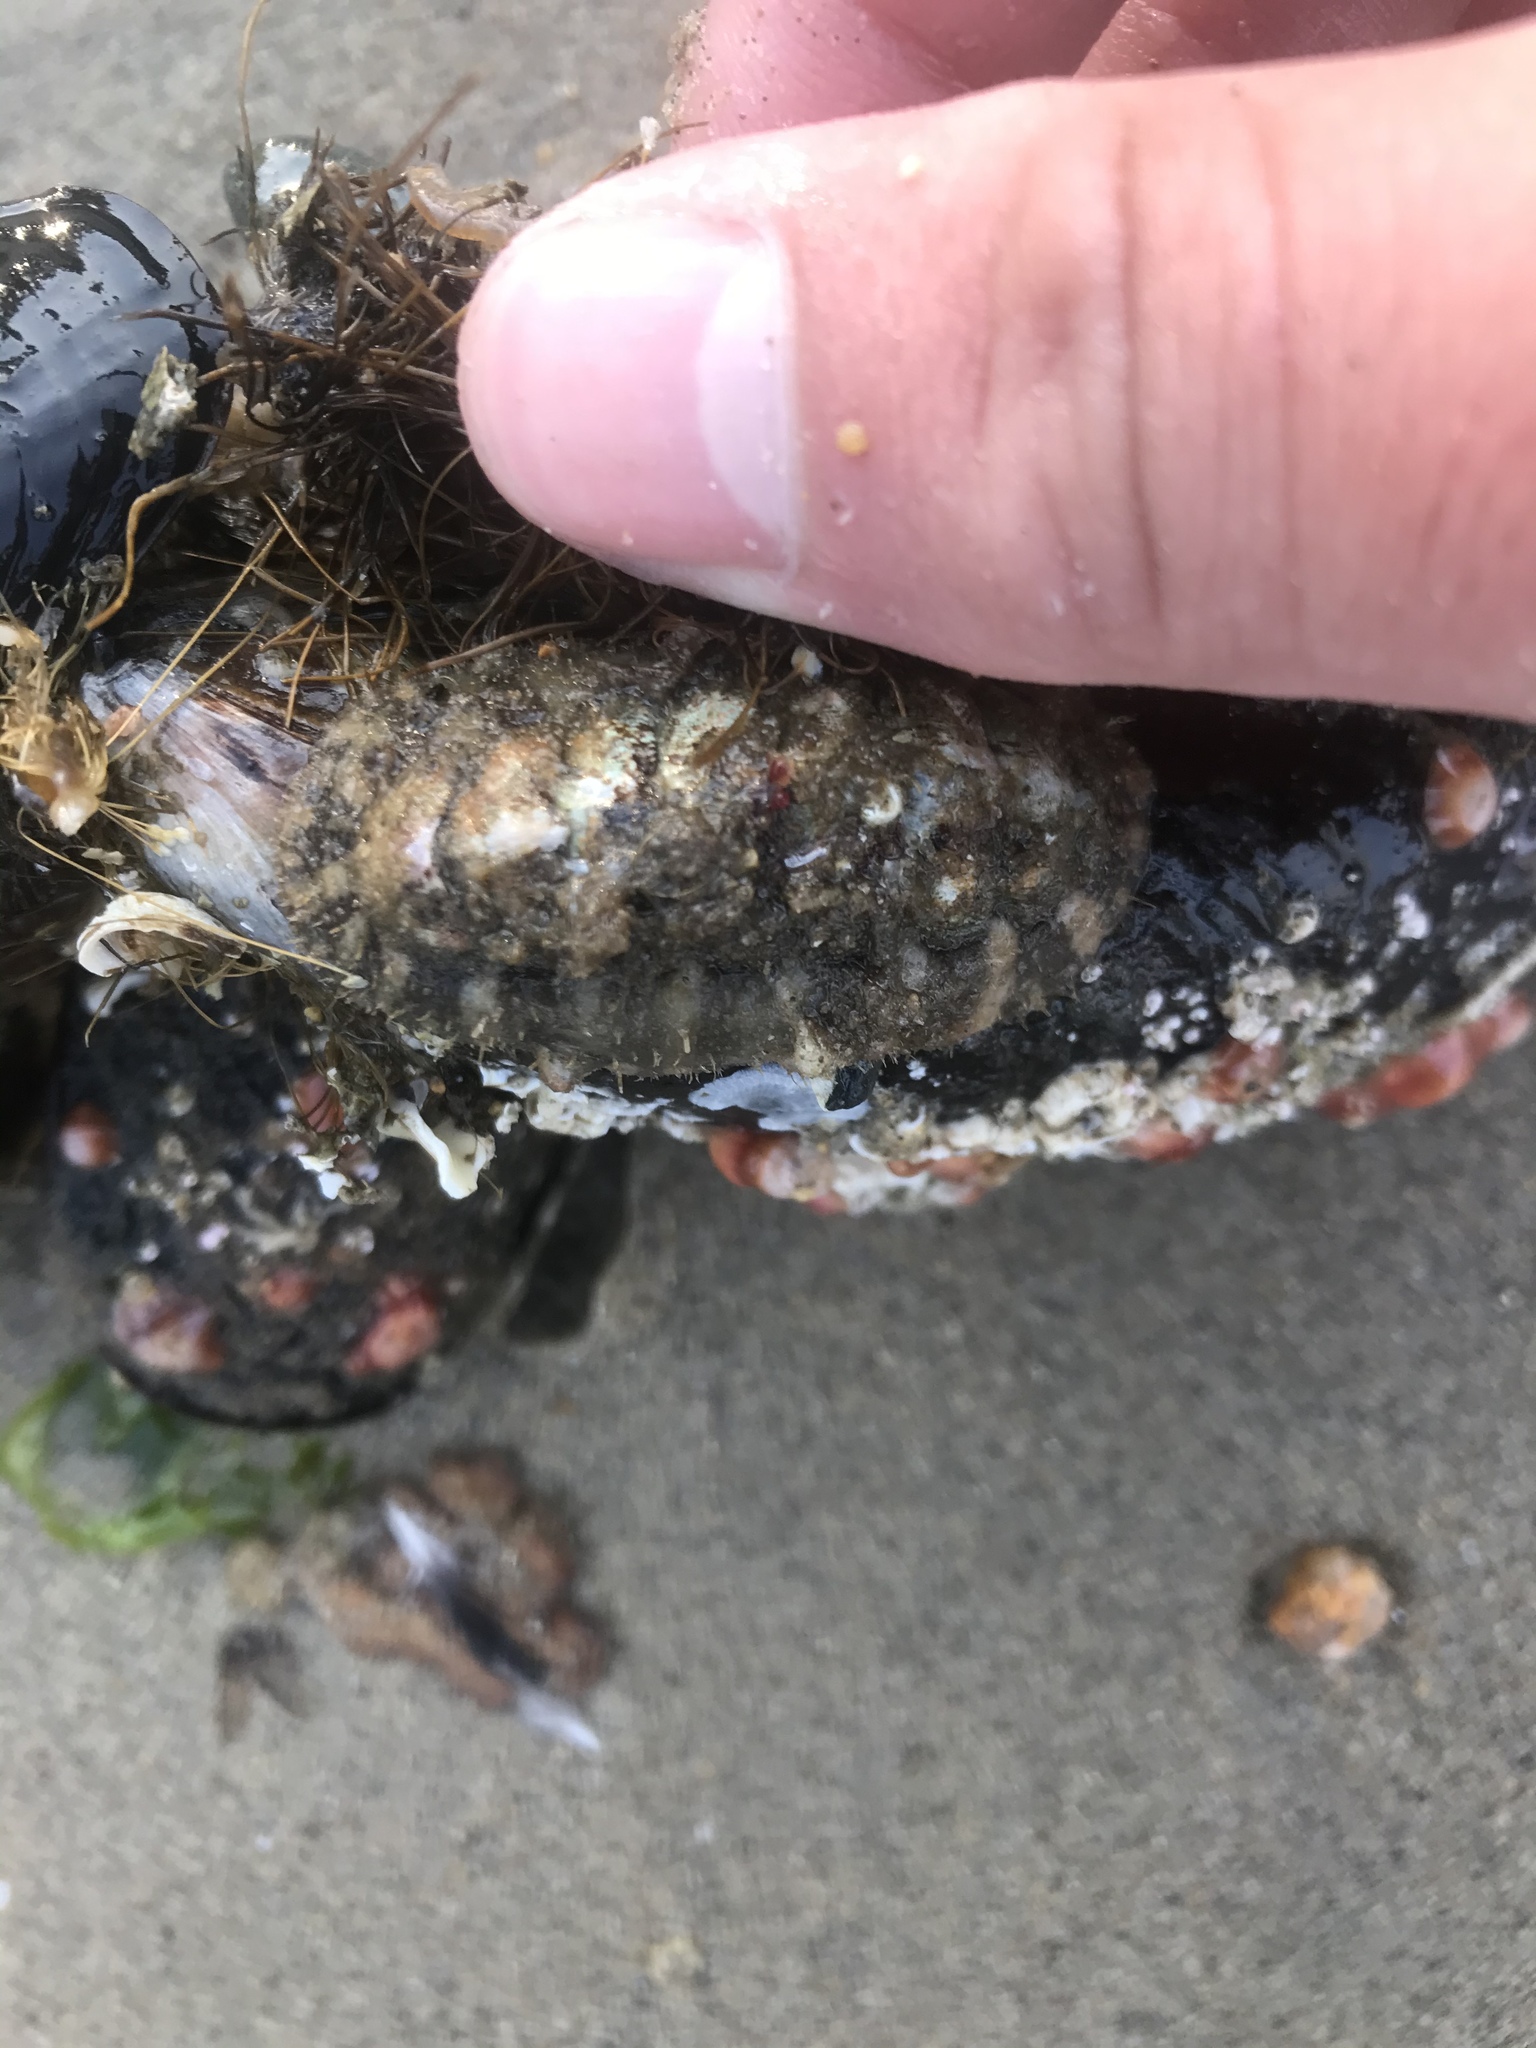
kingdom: Animalia
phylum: Mollusca
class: Polyplacophora
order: Chitonida
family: Tonicellidae
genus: Nuttallina
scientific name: Nuttallina californica
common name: California nuttall chiton
